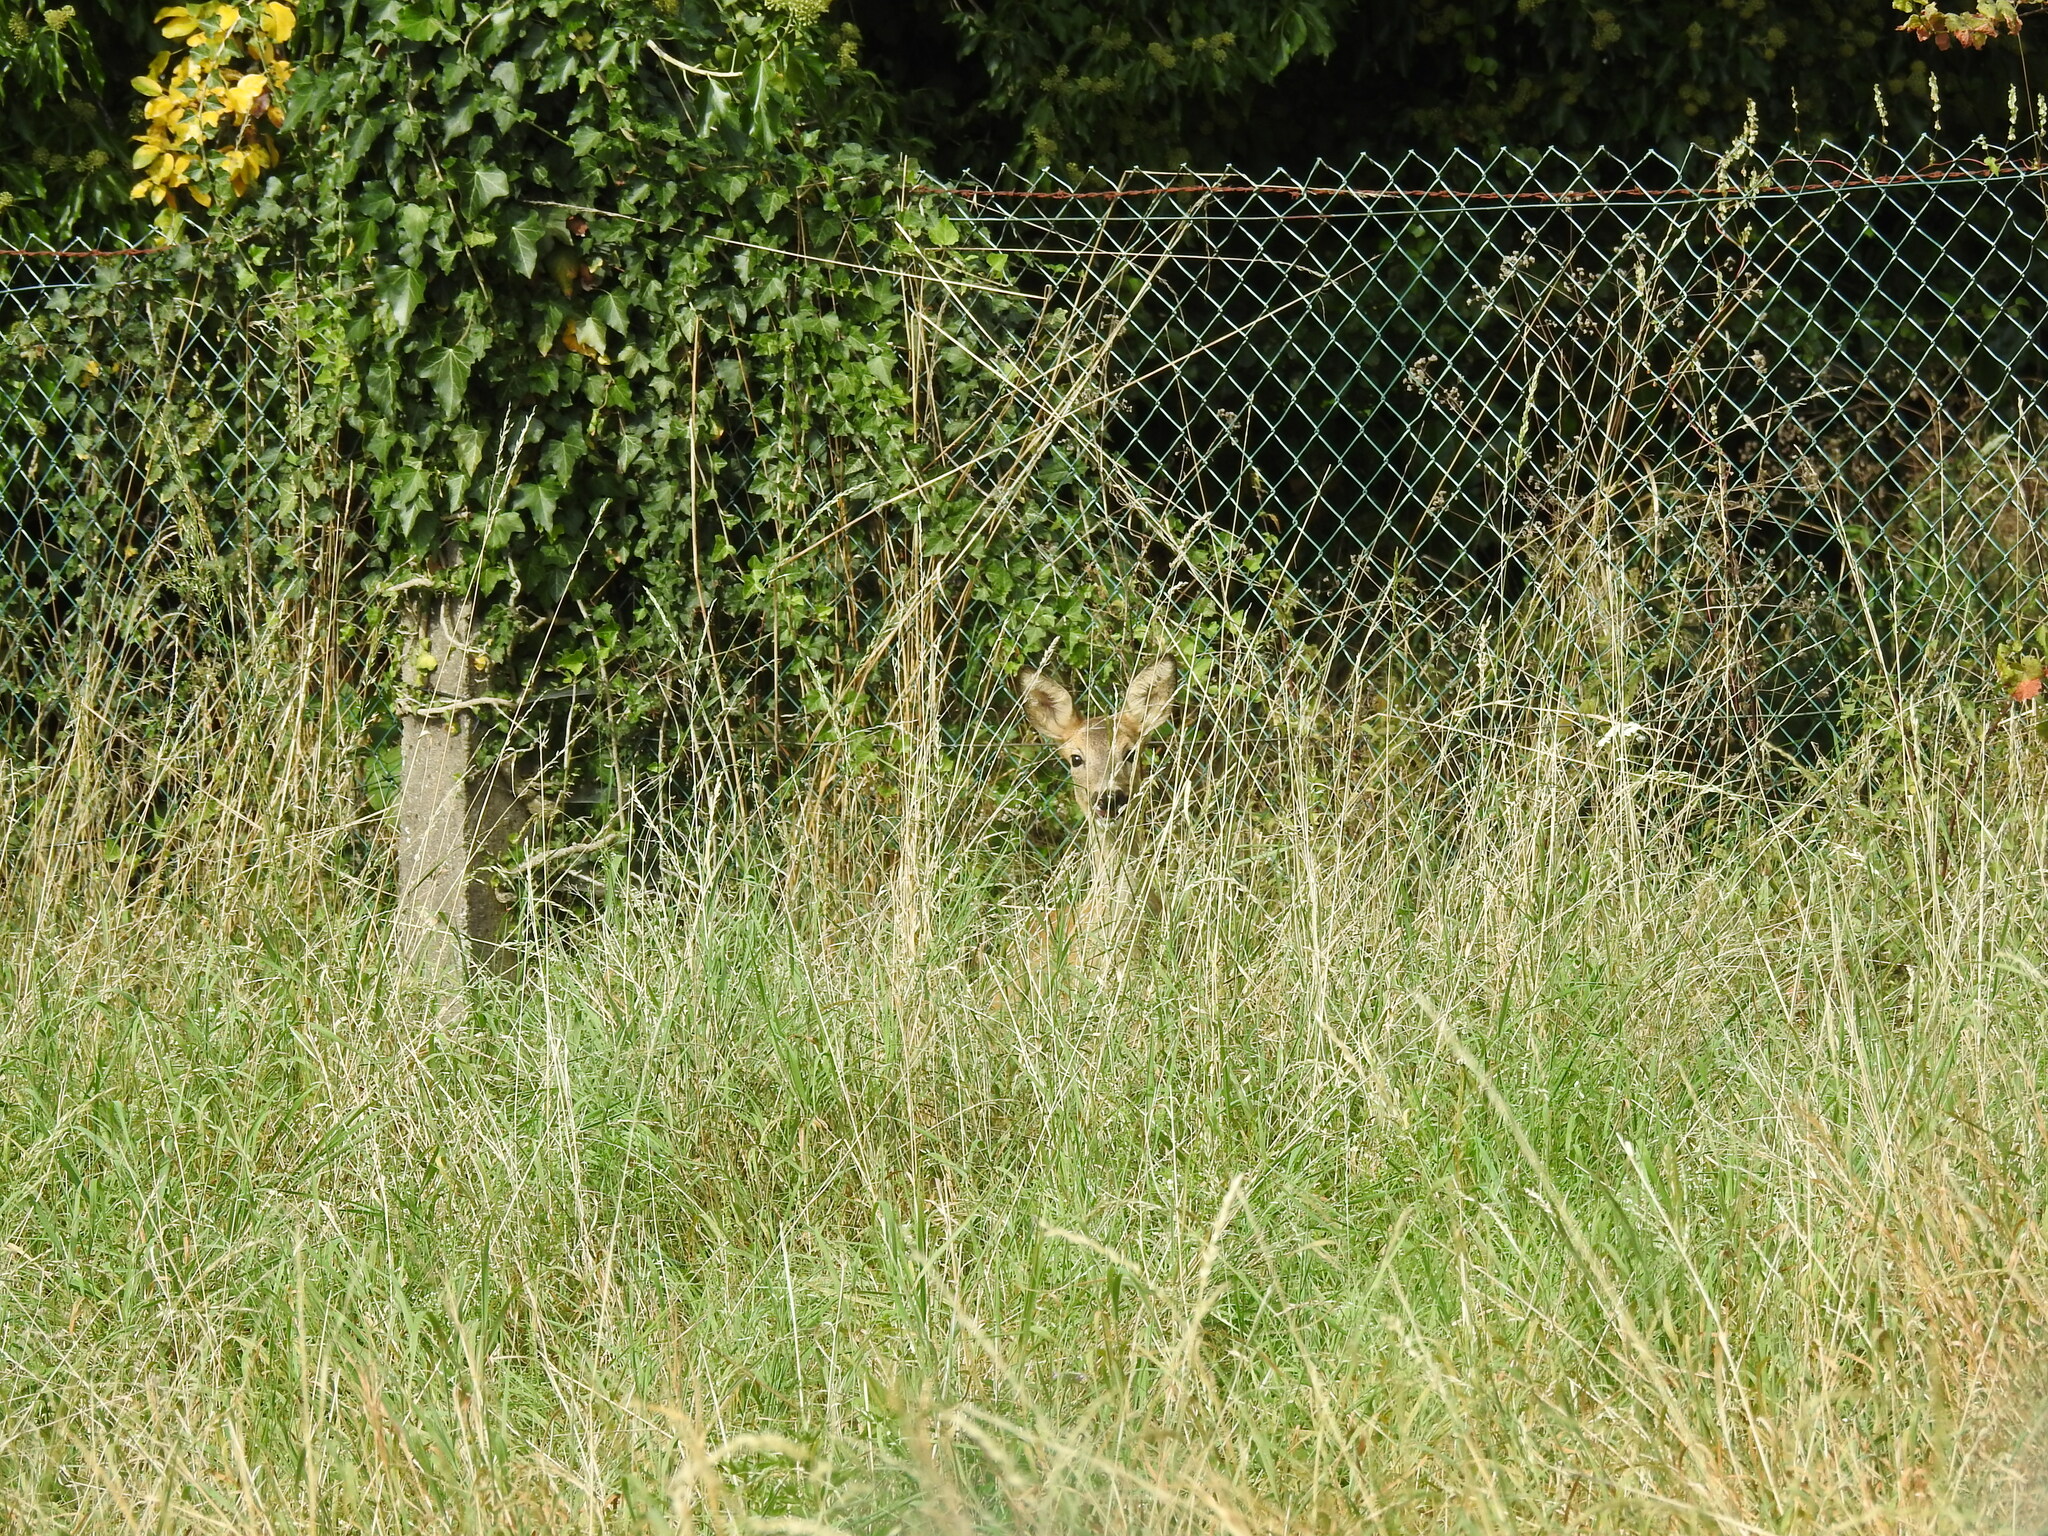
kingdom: Animalia
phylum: Chordata
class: Mammalia
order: Artiodactyla
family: Cervidae
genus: Capreolus
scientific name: Capreolus capreolus
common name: Western roe deer
